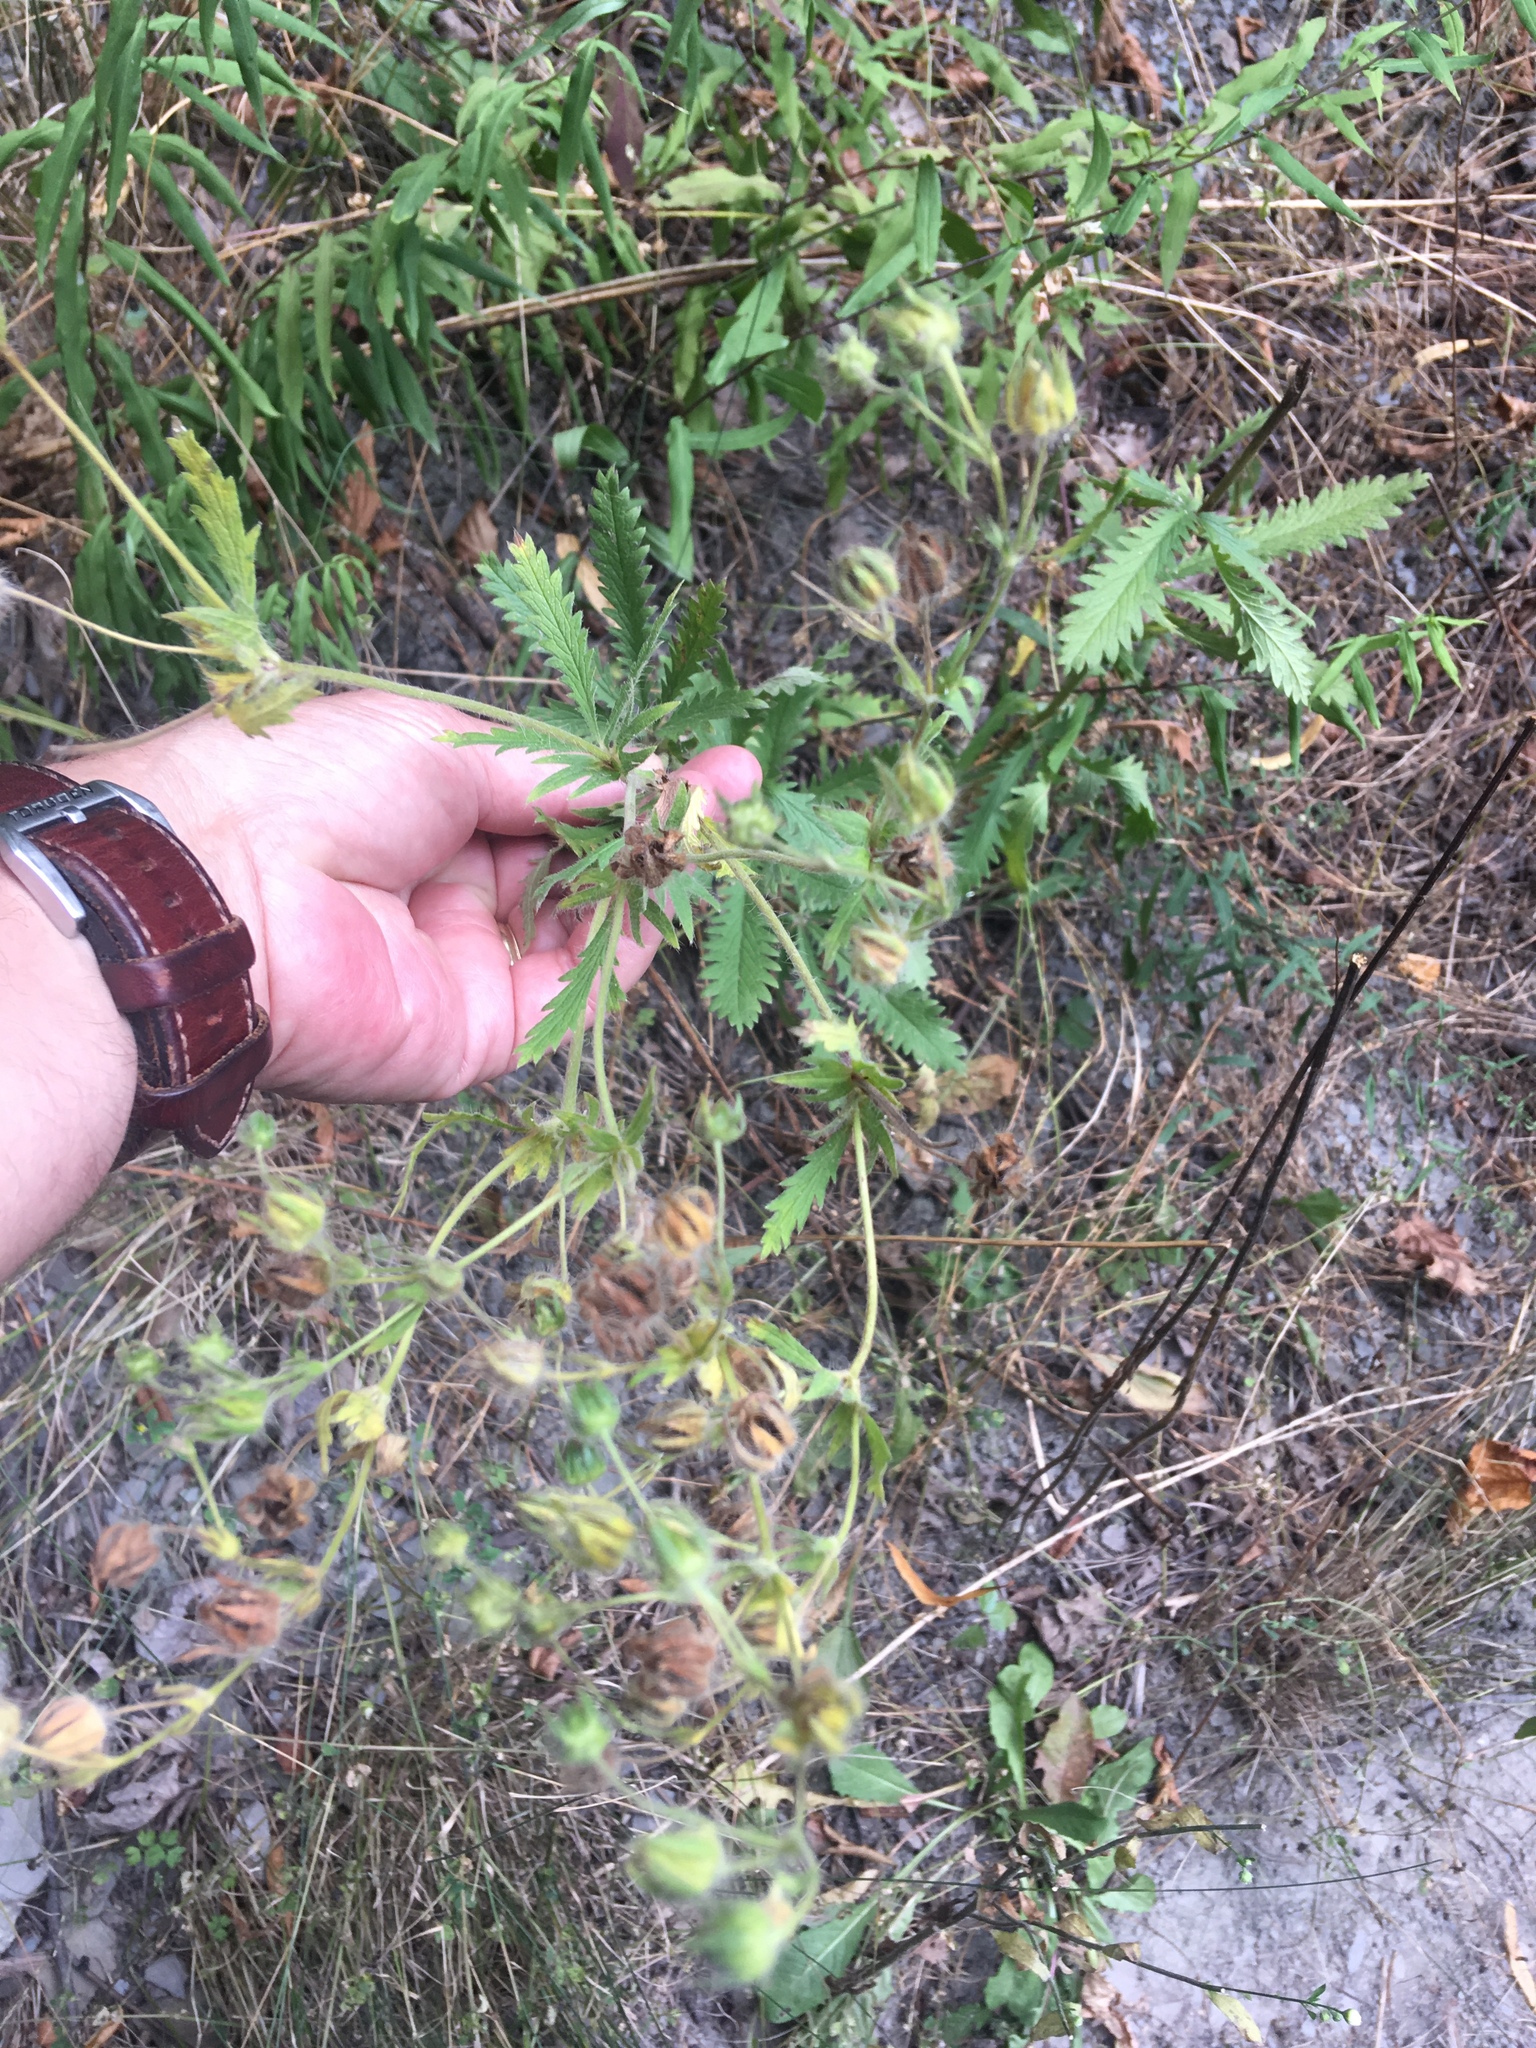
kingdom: Plantae
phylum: Tracheophyta
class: Magnoliopsida
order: Rosales
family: Rosaceae
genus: Potentilla
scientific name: Potentilla recta
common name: Sulphur cinquefoil
